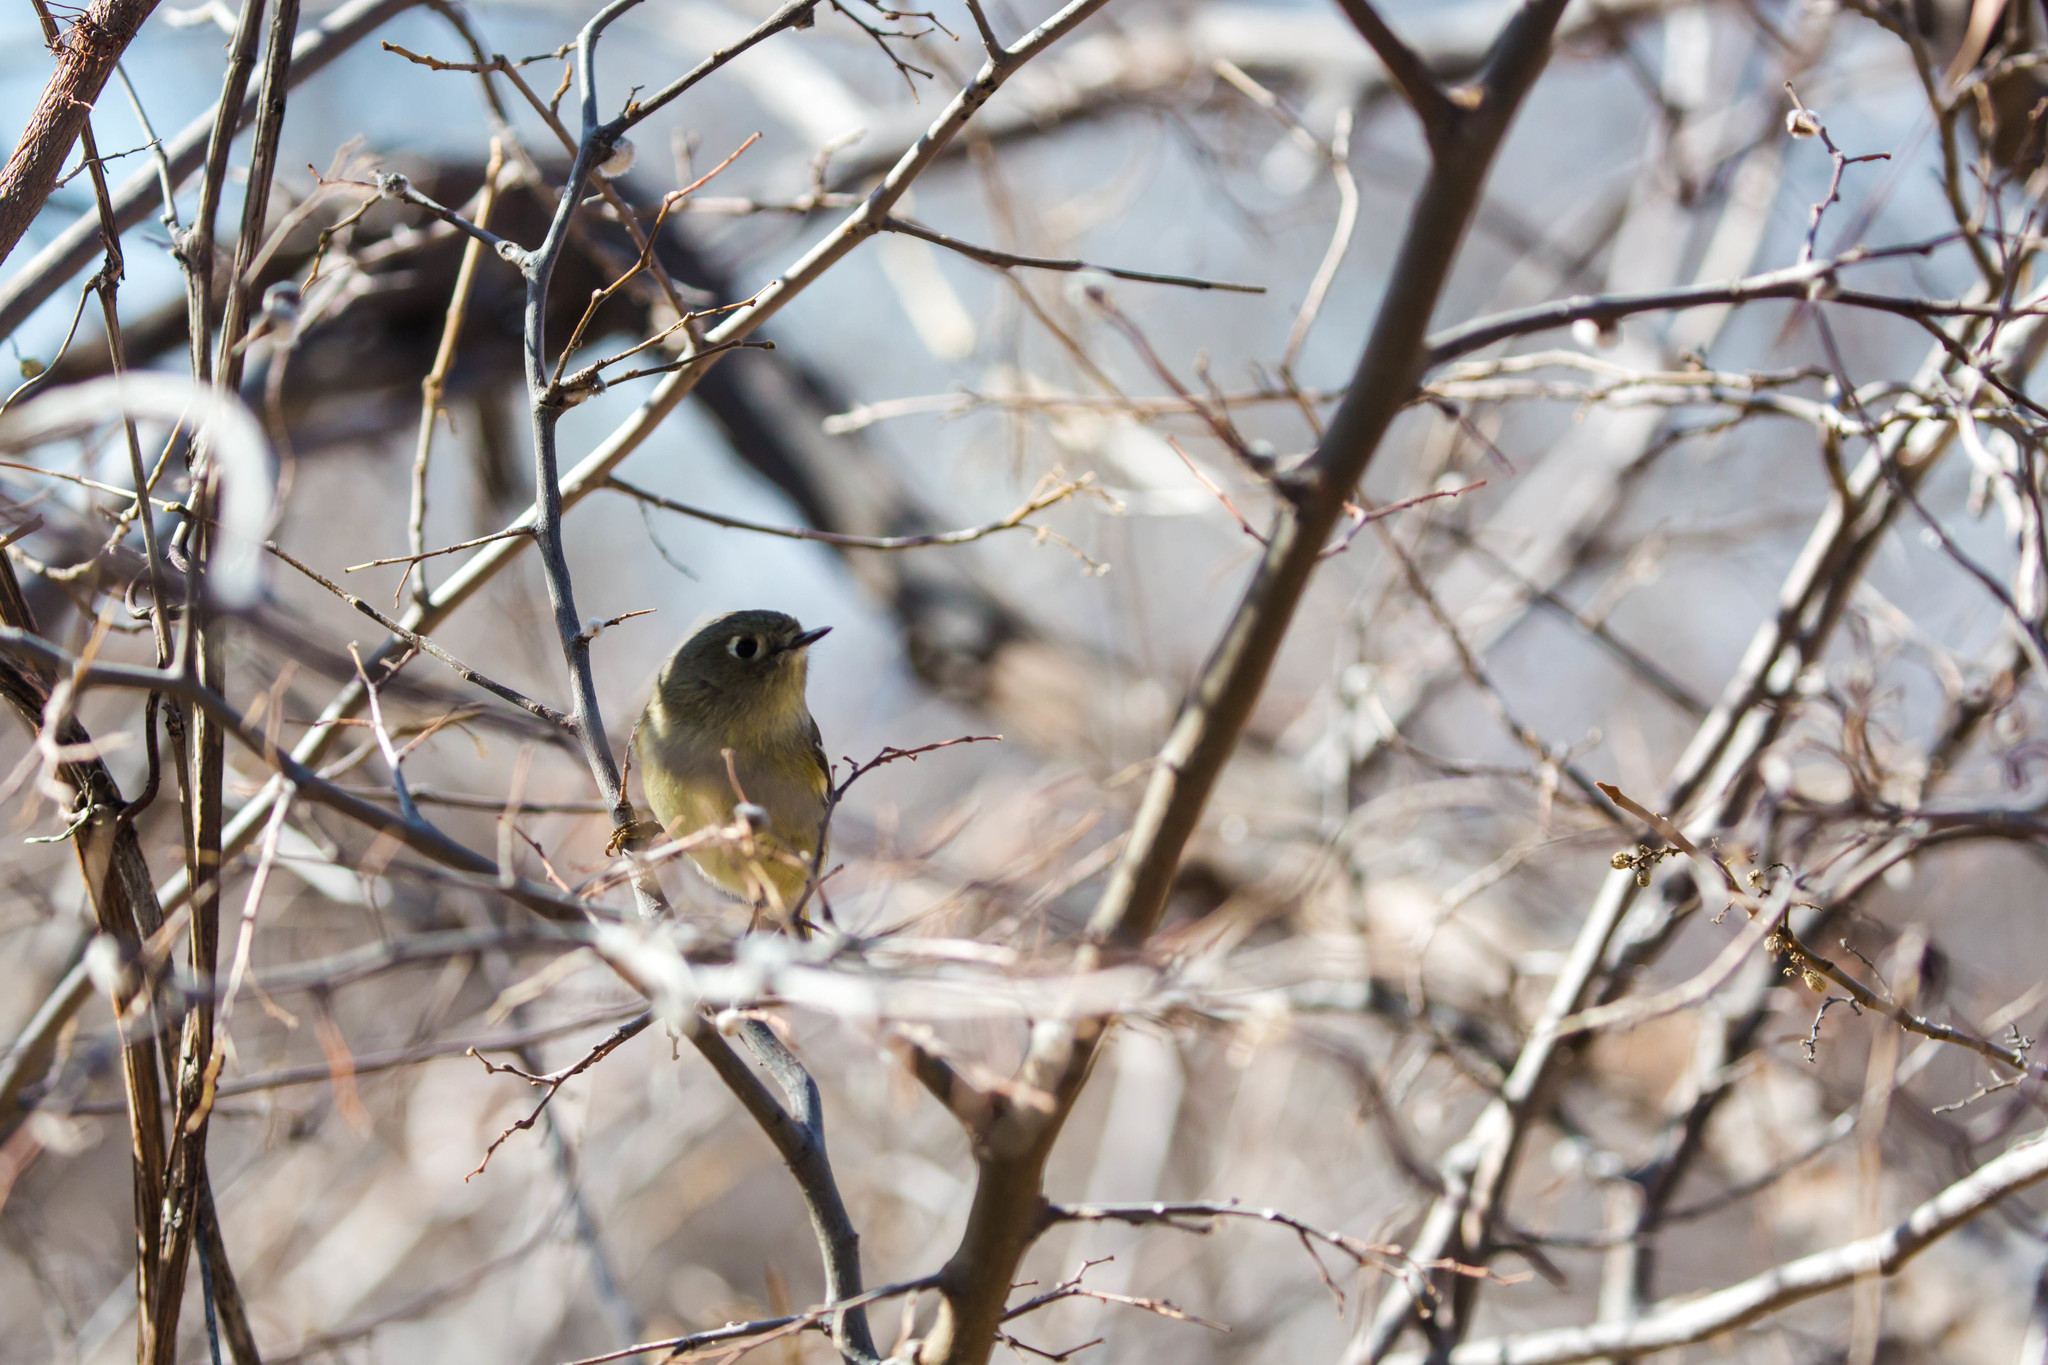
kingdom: Animalia
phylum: Chordata
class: Aves
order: Passeriformes
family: Regulidae
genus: Regulus
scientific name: Regulus calendula
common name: Ruby-crowned kinglet
